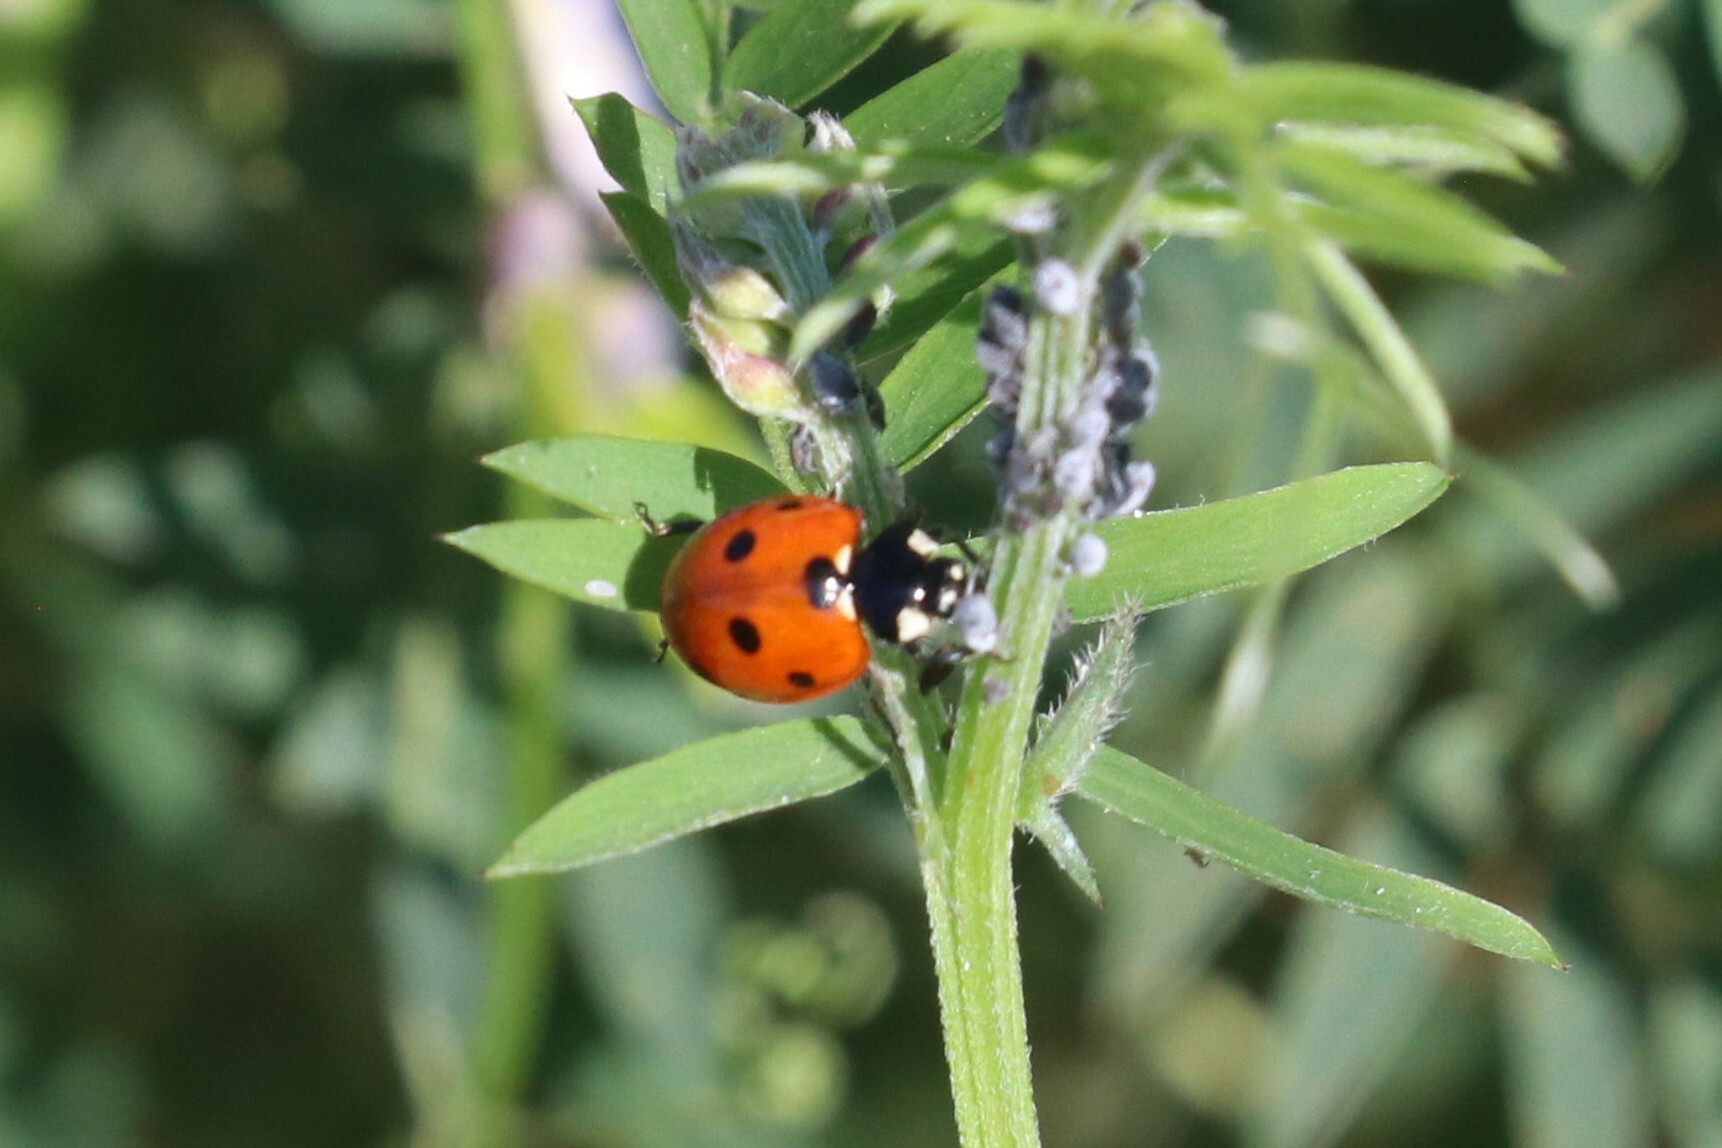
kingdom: Animalia
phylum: Arthropoda
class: Insecta
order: Coleoptera
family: Coccinellidae
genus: Coccinella
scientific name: Coccinella septempunctata
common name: Sevenspotted lady beetle
